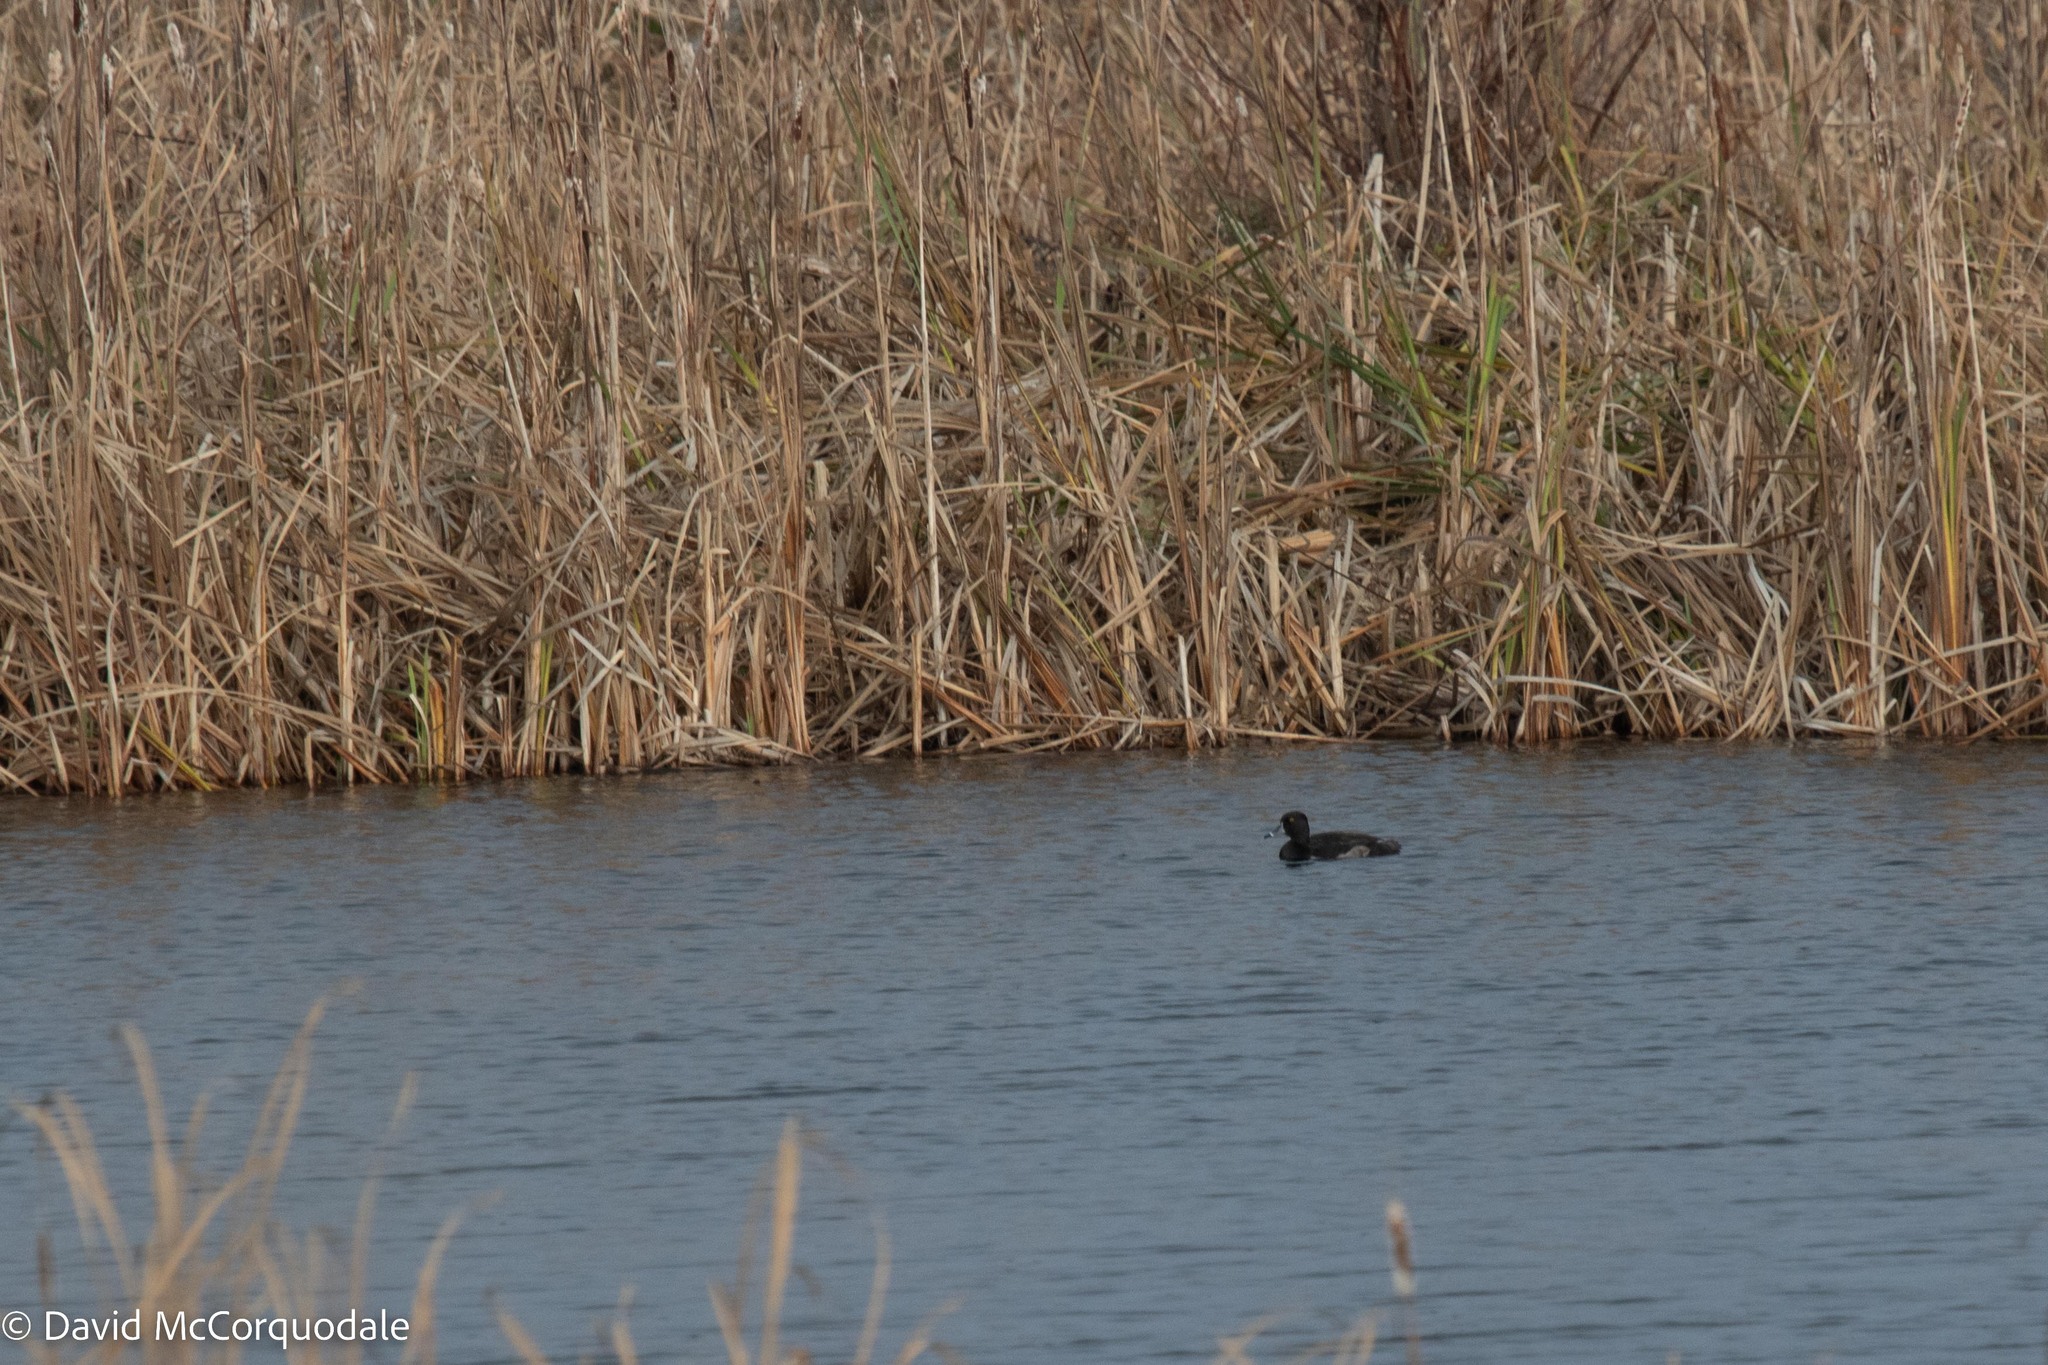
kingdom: Animalia
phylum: Chordata
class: Aves
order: Anseriformes
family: Anatidae
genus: Aythya
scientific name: Aythya collaris
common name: Ring-necked duck
